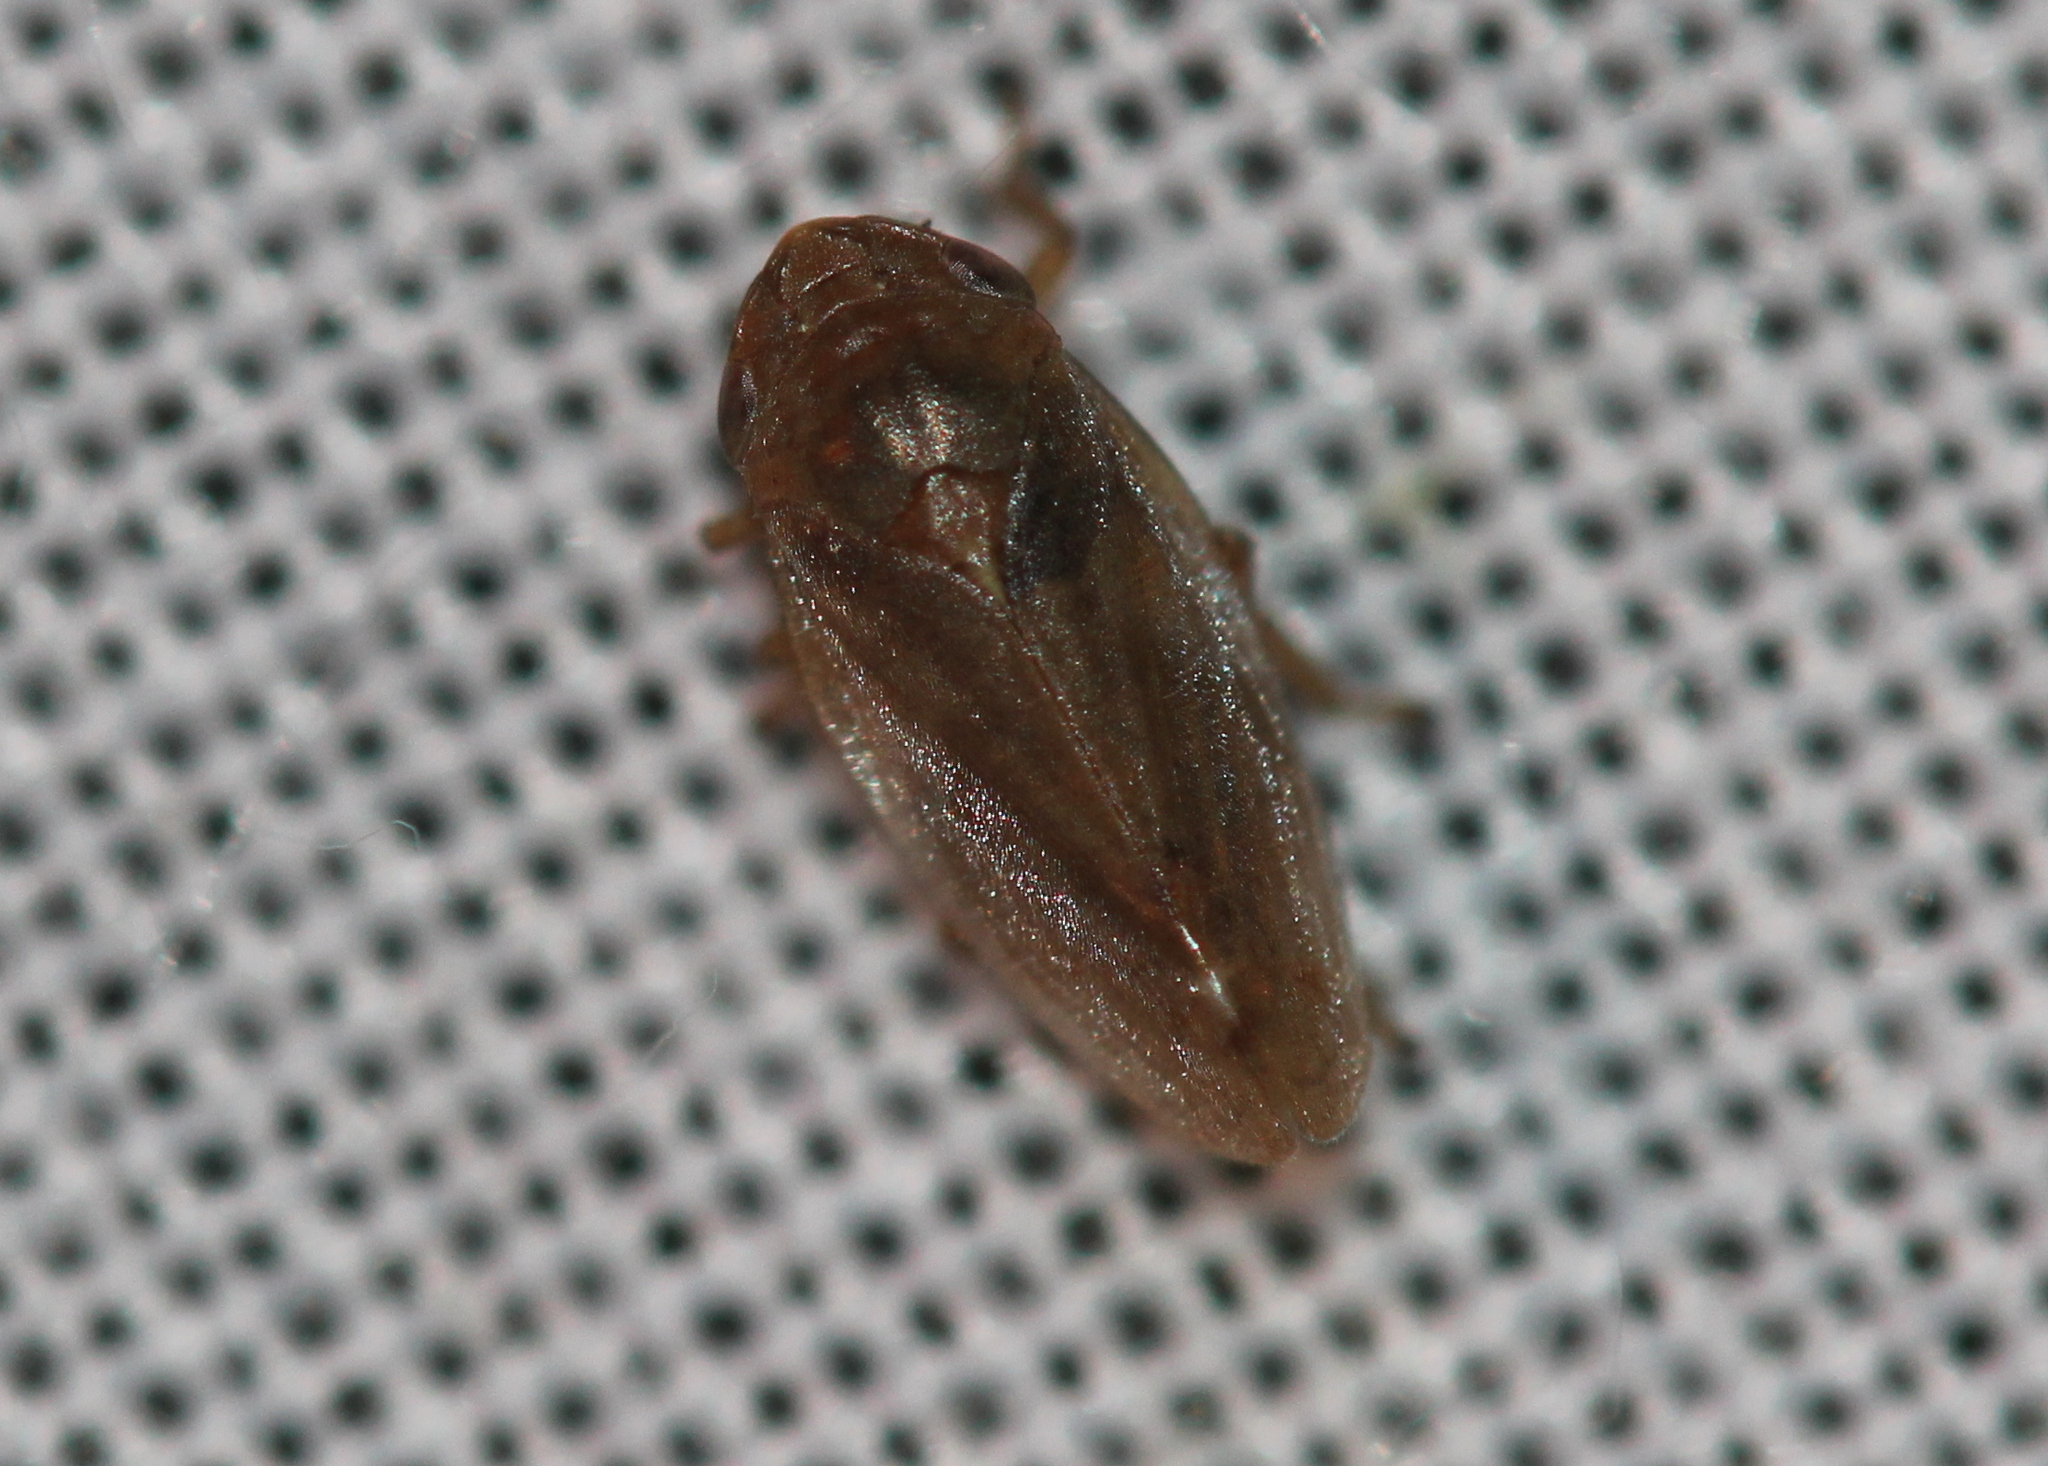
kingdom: Animalia
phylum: Arthropoda
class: Insecta
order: Hemiptera
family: Aphrophoridae
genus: Philaenus
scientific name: Philaenus spumarius
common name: Meadow spittlebug
